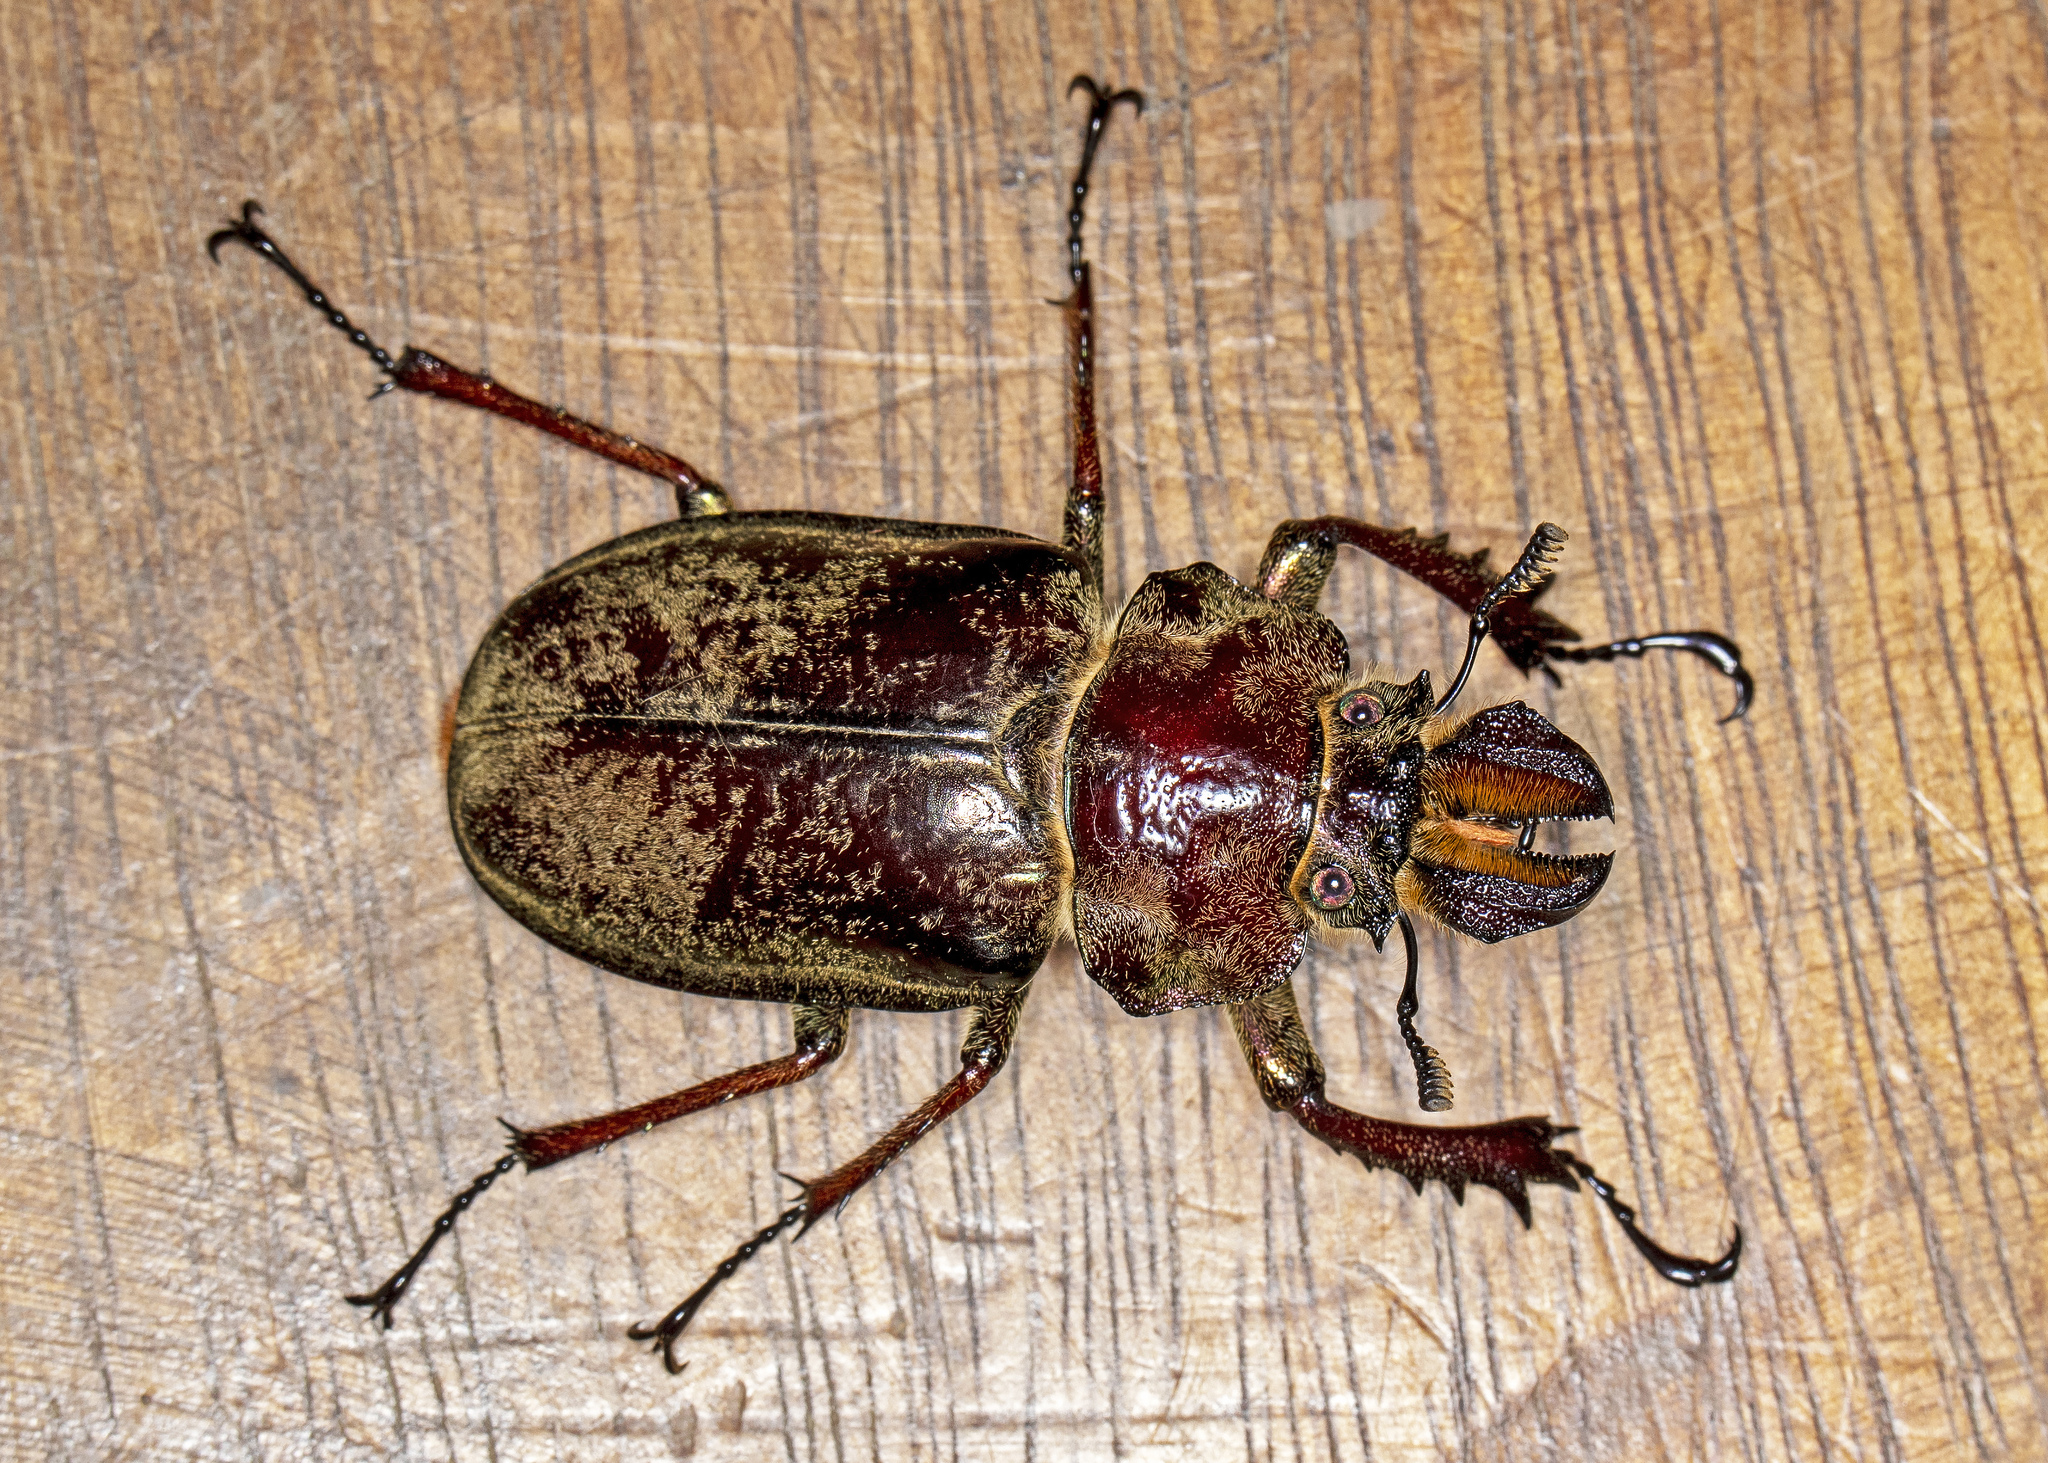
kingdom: Animalia
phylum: Arthropoda
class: Insecta
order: Coleoptera
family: Lucanidae
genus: Sphaenognathus
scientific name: Sphaenognathus giganteus
